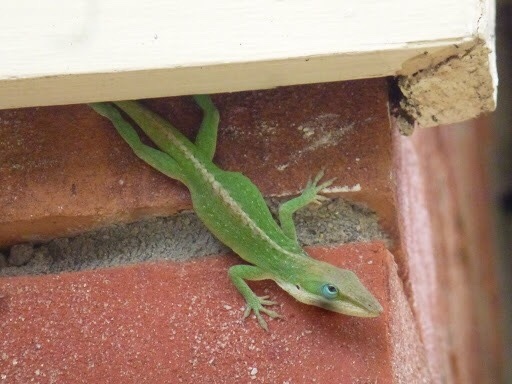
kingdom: Animalia
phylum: Chordata
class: Squamata
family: Dactyloidae
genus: Anolis
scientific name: Anolis carolinensis
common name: Green anole
